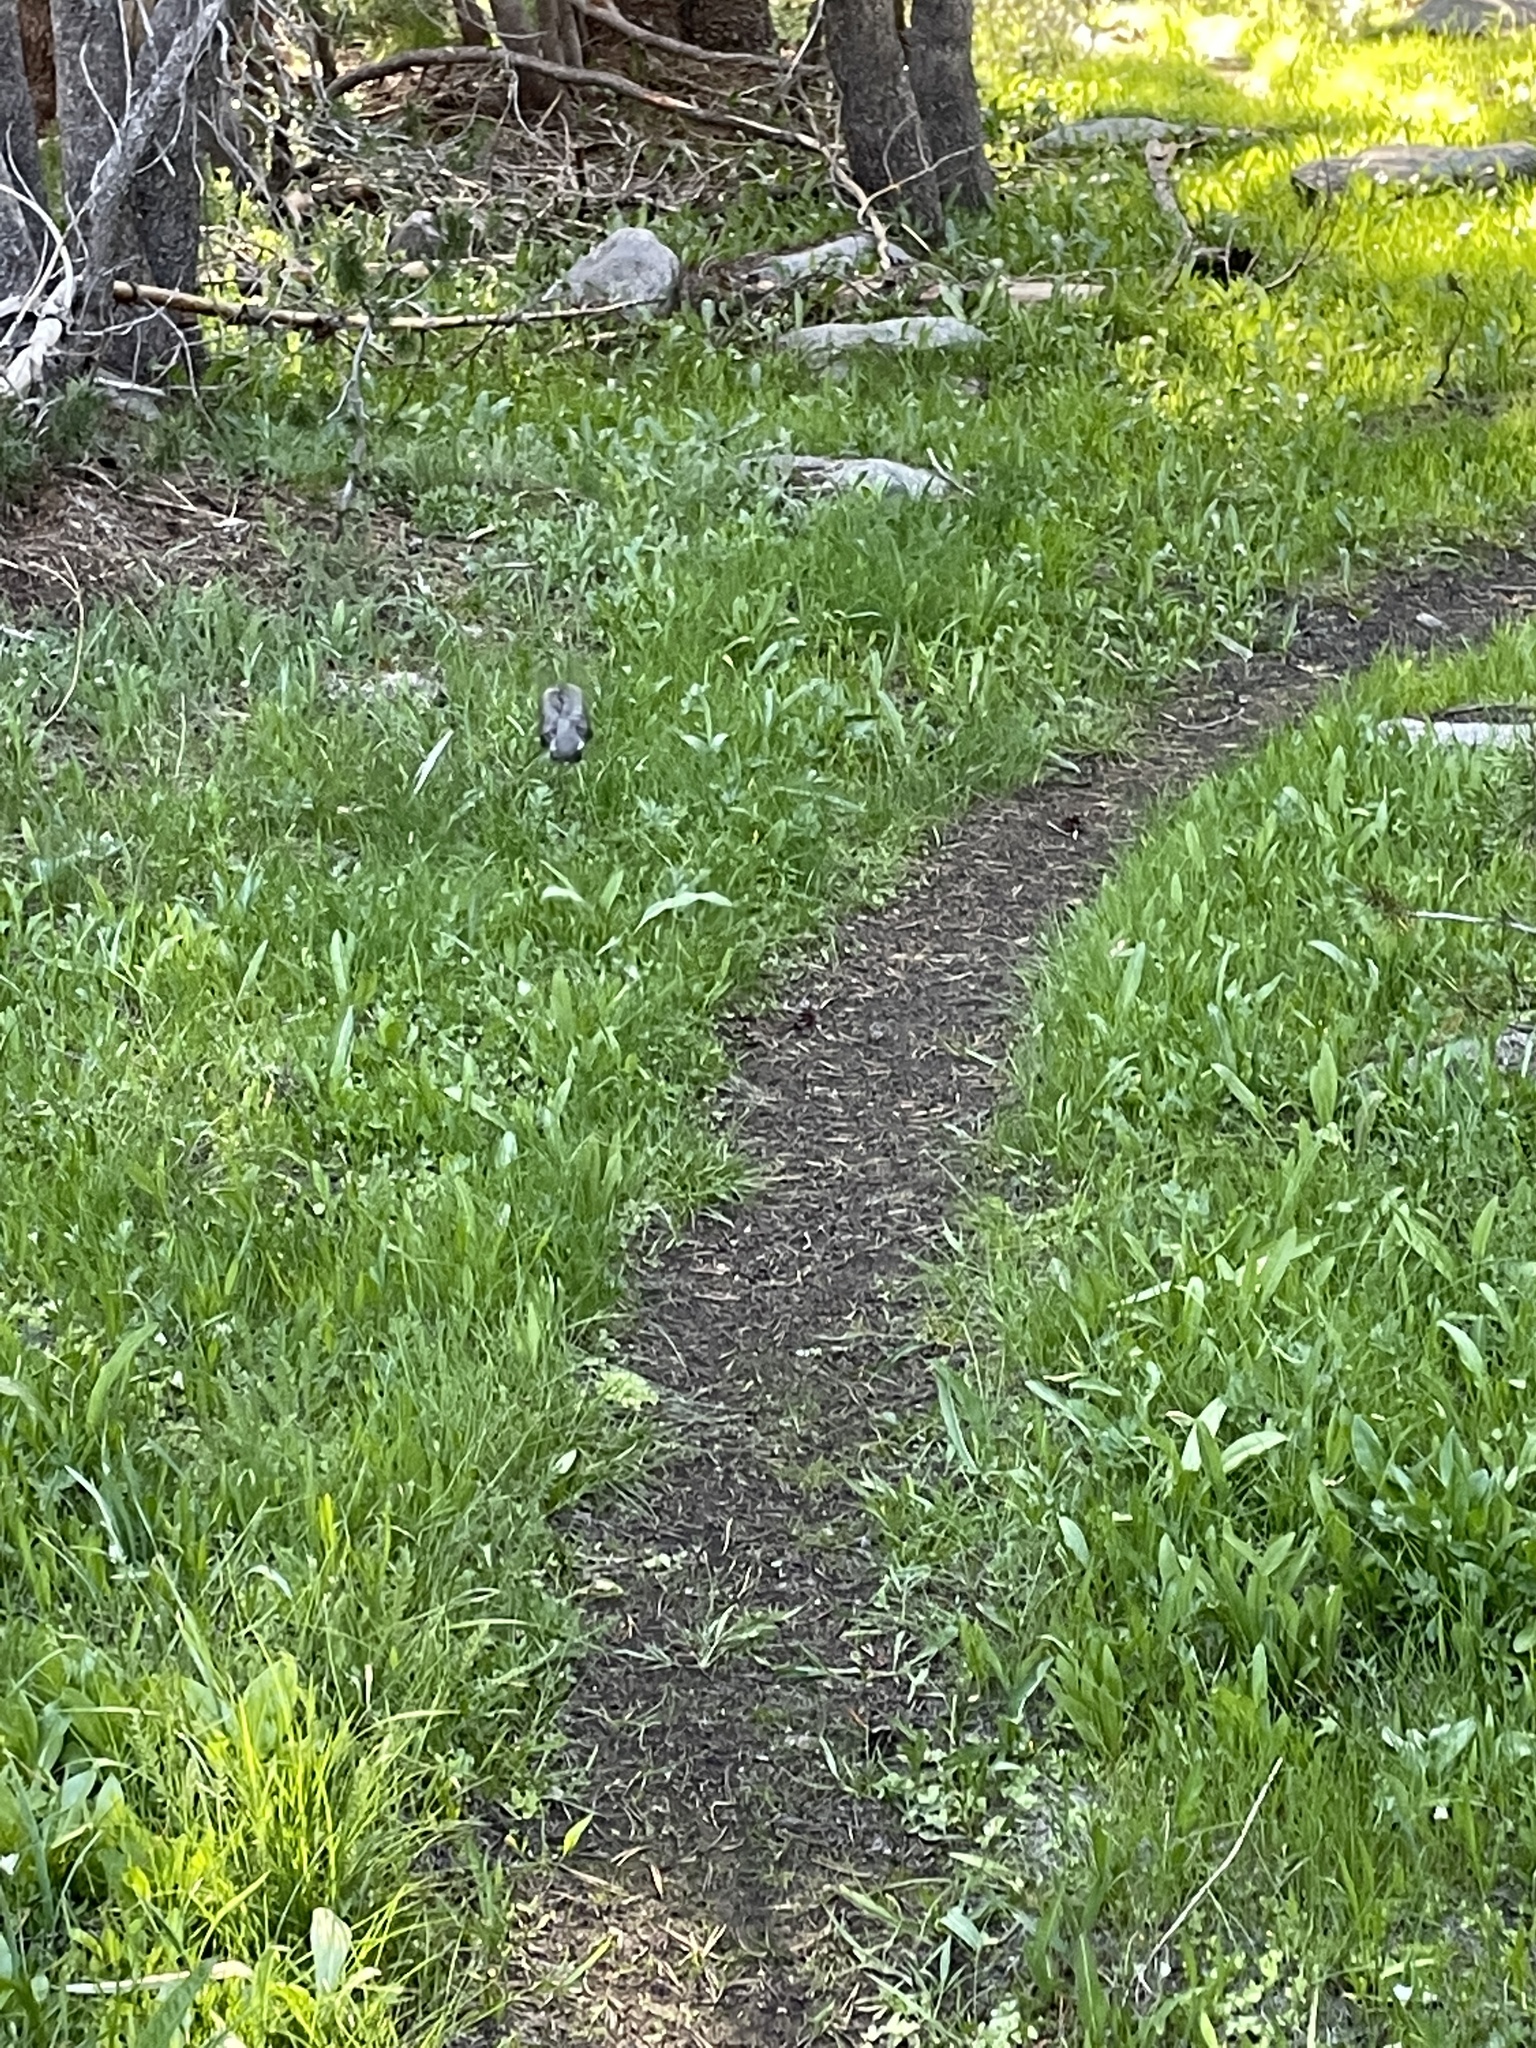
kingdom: Animalia
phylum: Chordata
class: Aves
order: Passeriformes
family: Turdidae
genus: Turdus
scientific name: Turdus migratorius
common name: American robin
